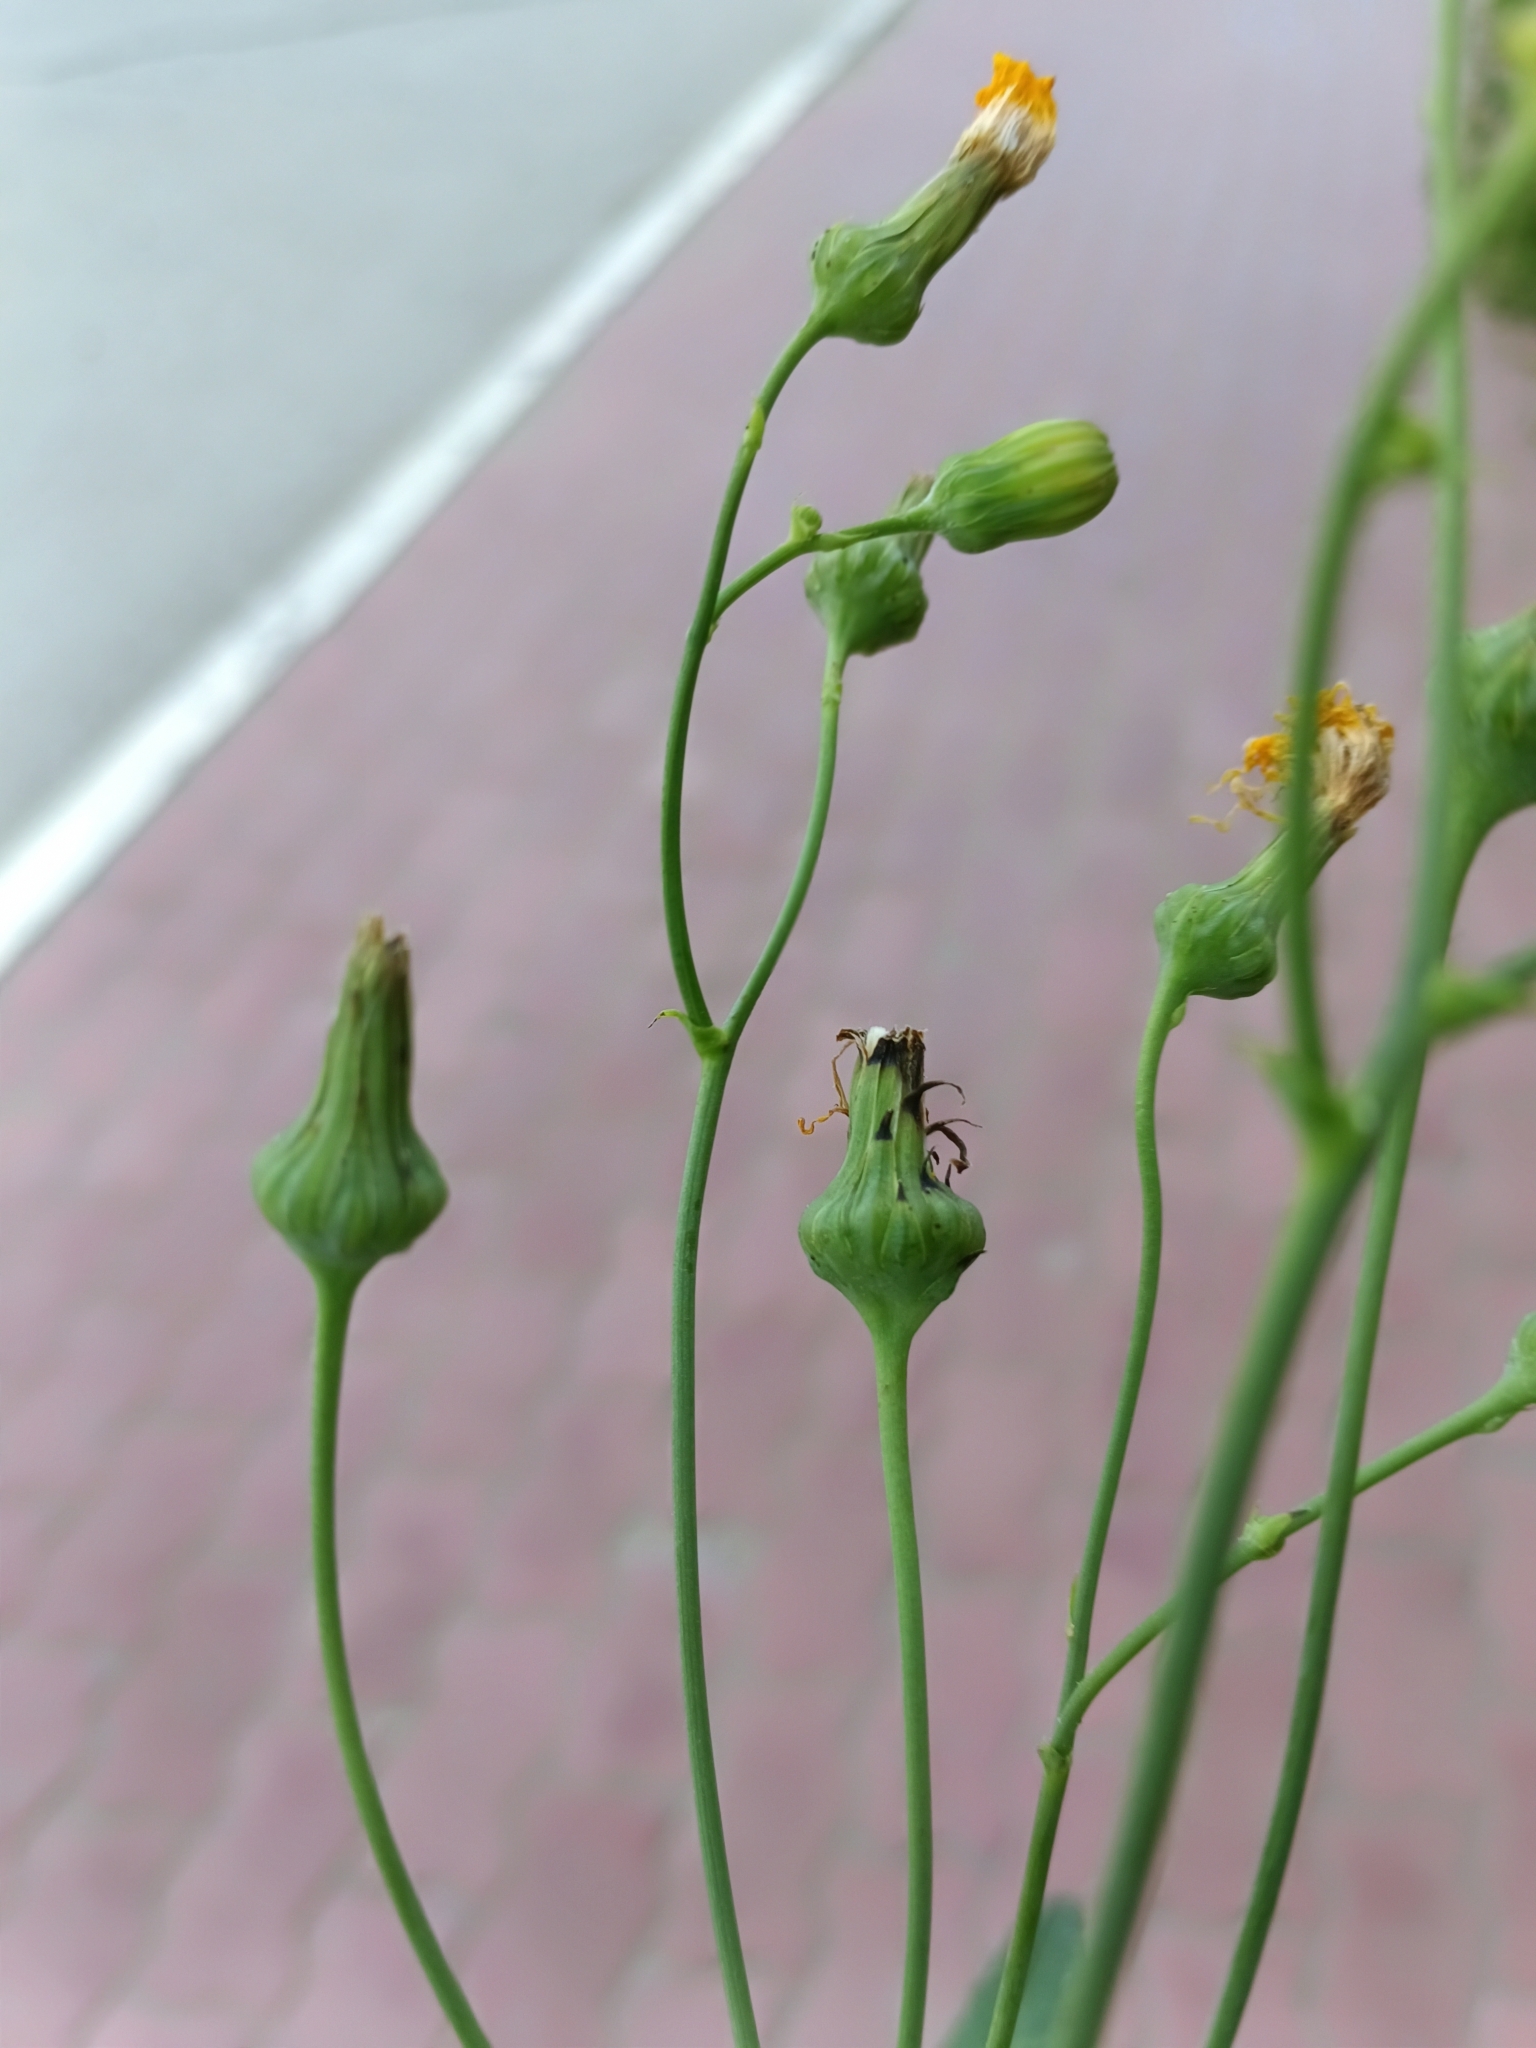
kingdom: Plantae
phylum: Tracheophyta
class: Magnoliopsida
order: Asterales
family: Asteraceae
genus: Sonchus
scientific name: Sonchus arvensis
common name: Perennial sow-thistle
